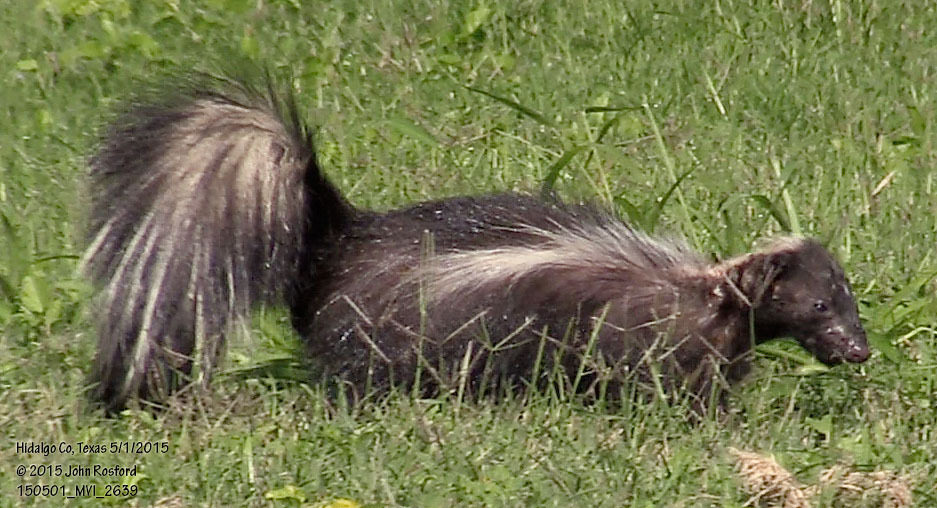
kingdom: Animalia
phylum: Chordata
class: Mammalia
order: Carnivora
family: Mephitidae
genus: Mephitis
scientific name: Mephitis mephitis
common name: Striped skunk
